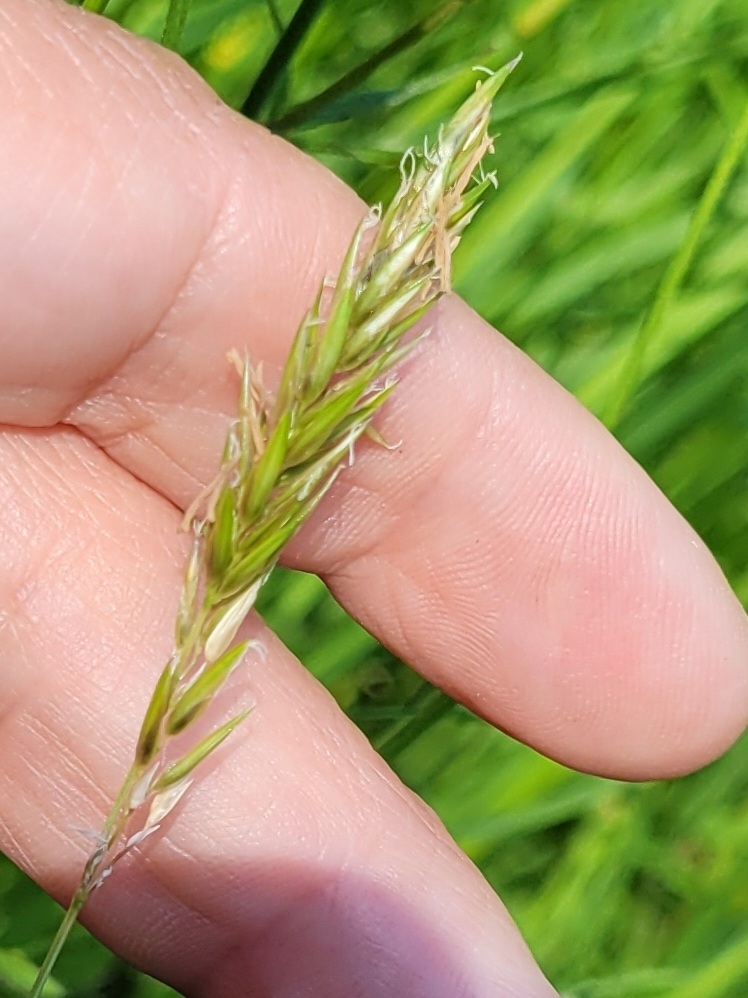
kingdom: Plantae
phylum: Tracheophyta
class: Liliopsida
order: Poales
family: Poaceae
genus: Anthoxanthum
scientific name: Anthoxanthum odoratum
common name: Sweet vernalgrass
